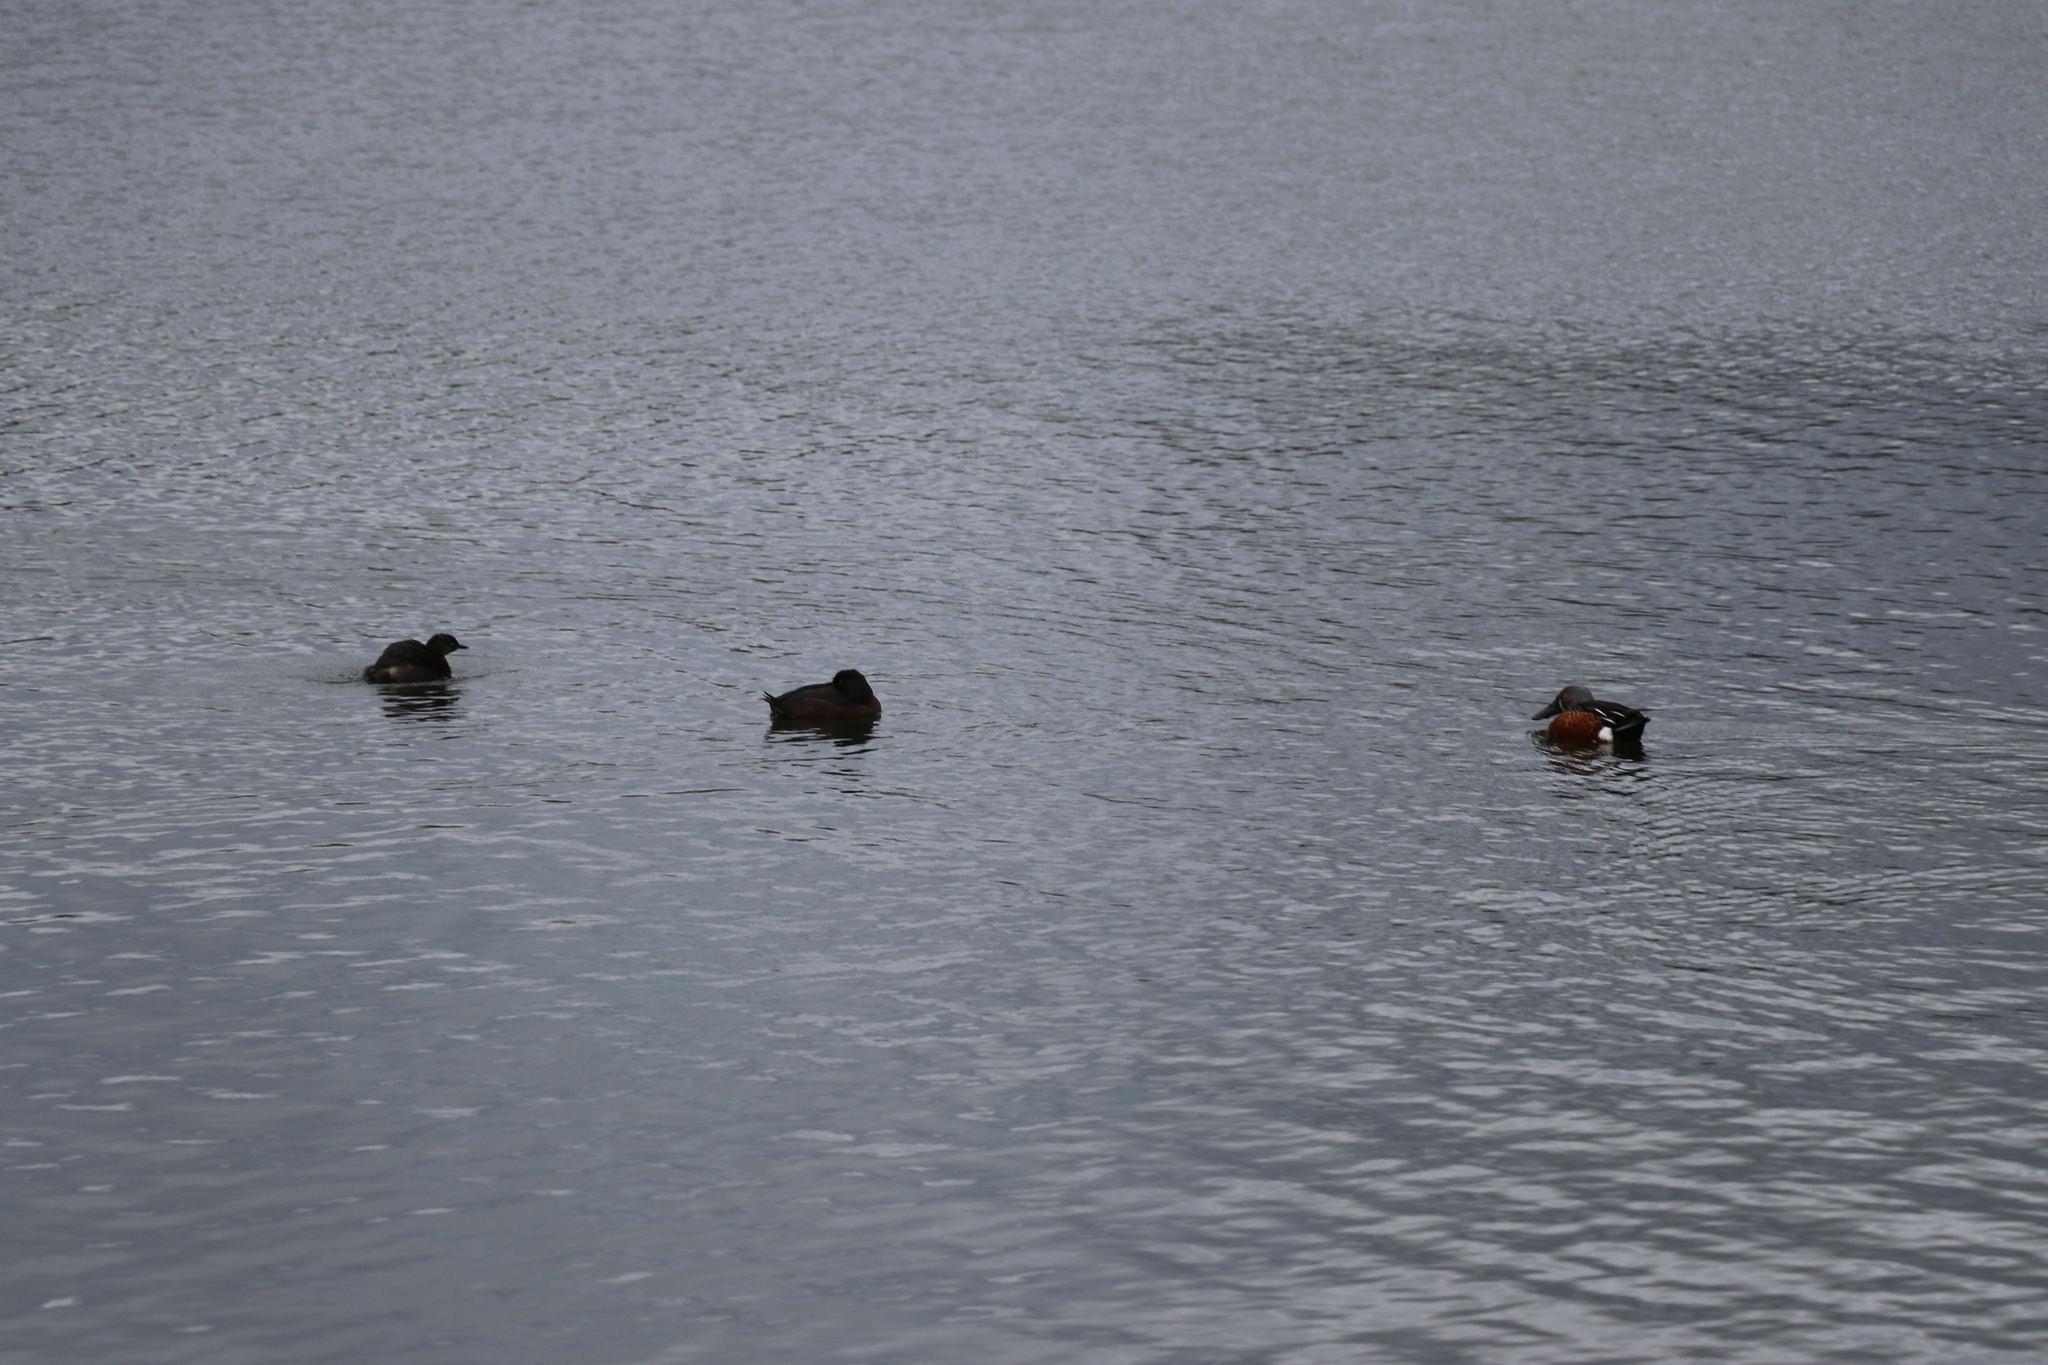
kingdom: Animalia
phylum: Chordata
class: Aves
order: Podicipediformes
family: Podicipedidae
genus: Poliocephalus
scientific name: Poliocephalus rufopectus
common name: New zealand grebe
